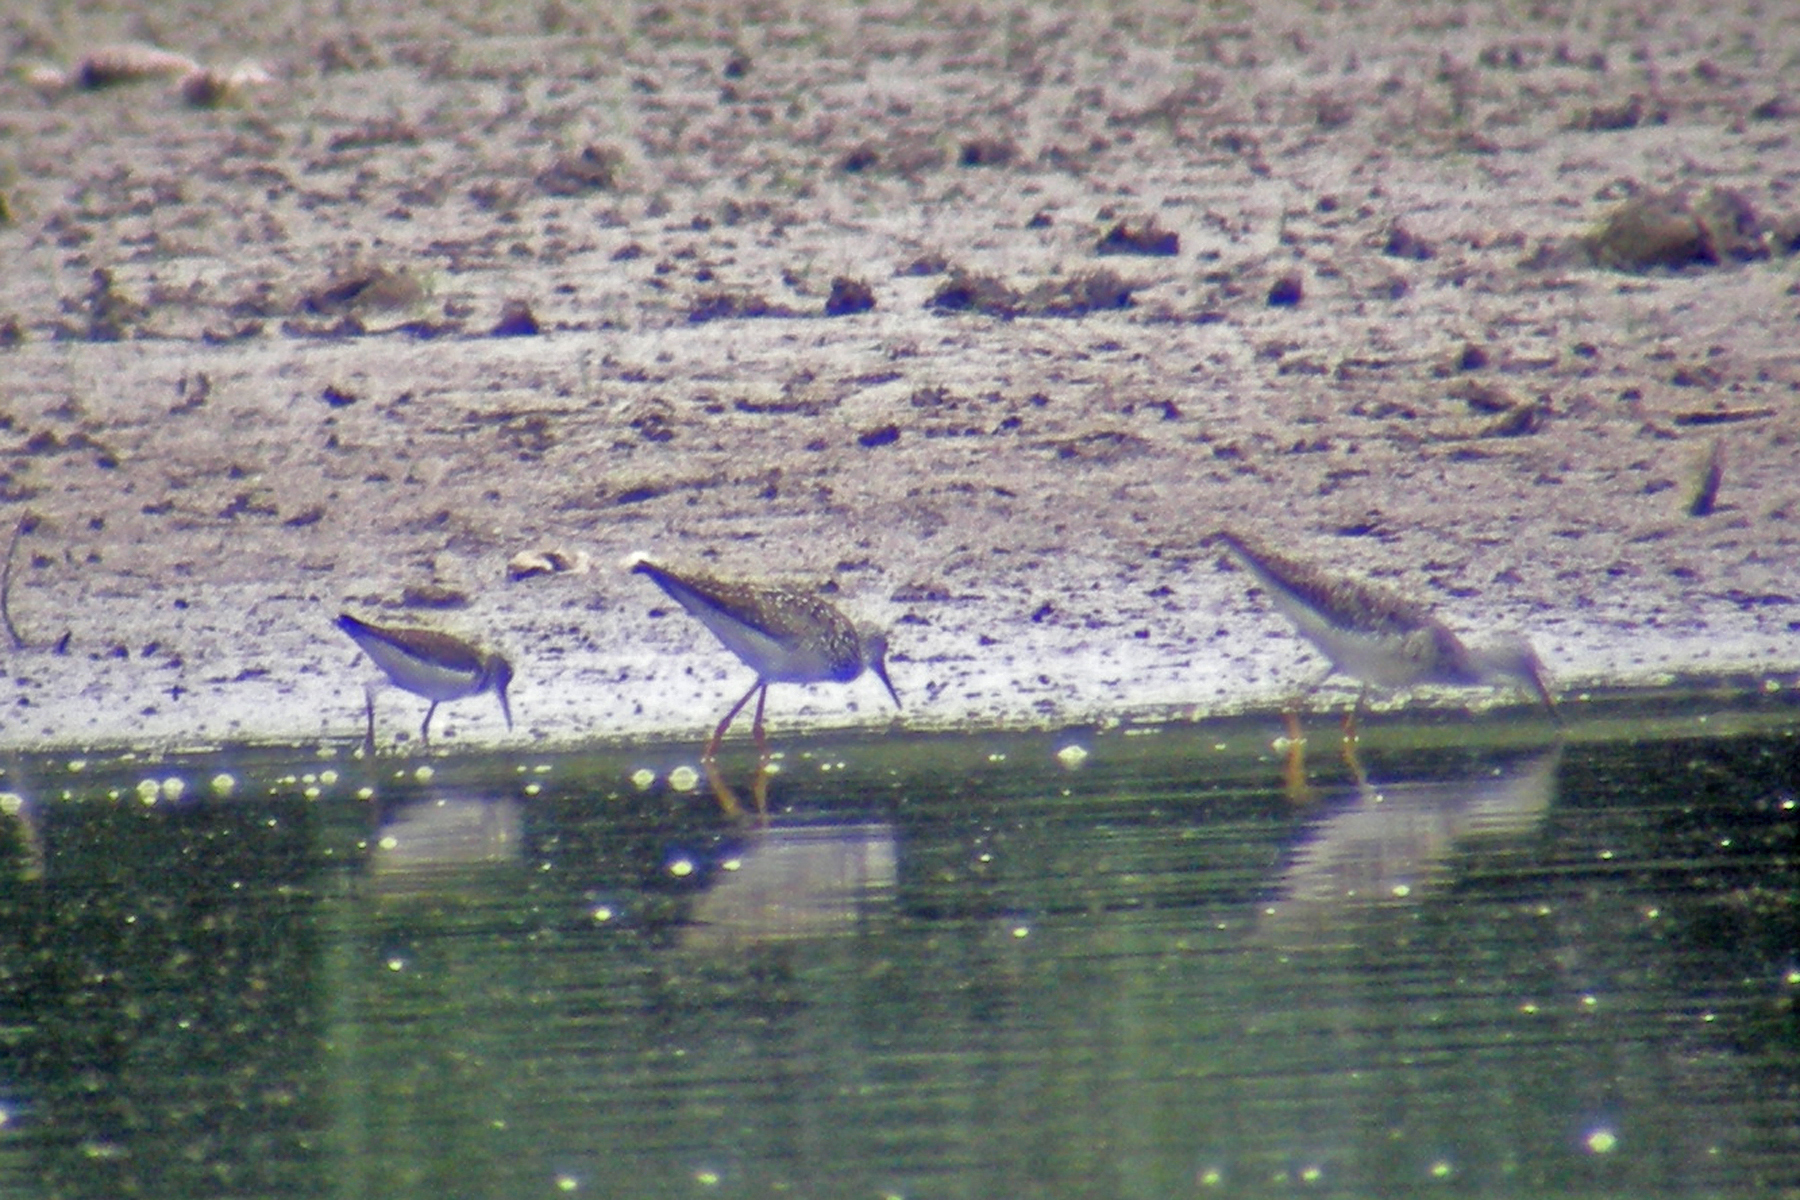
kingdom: Animalia
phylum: Chordata
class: Aves
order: Charadriiformes
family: Scolopacidae
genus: Tringa
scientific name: Tringa melanoleuca
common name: Greater yellowlegs
